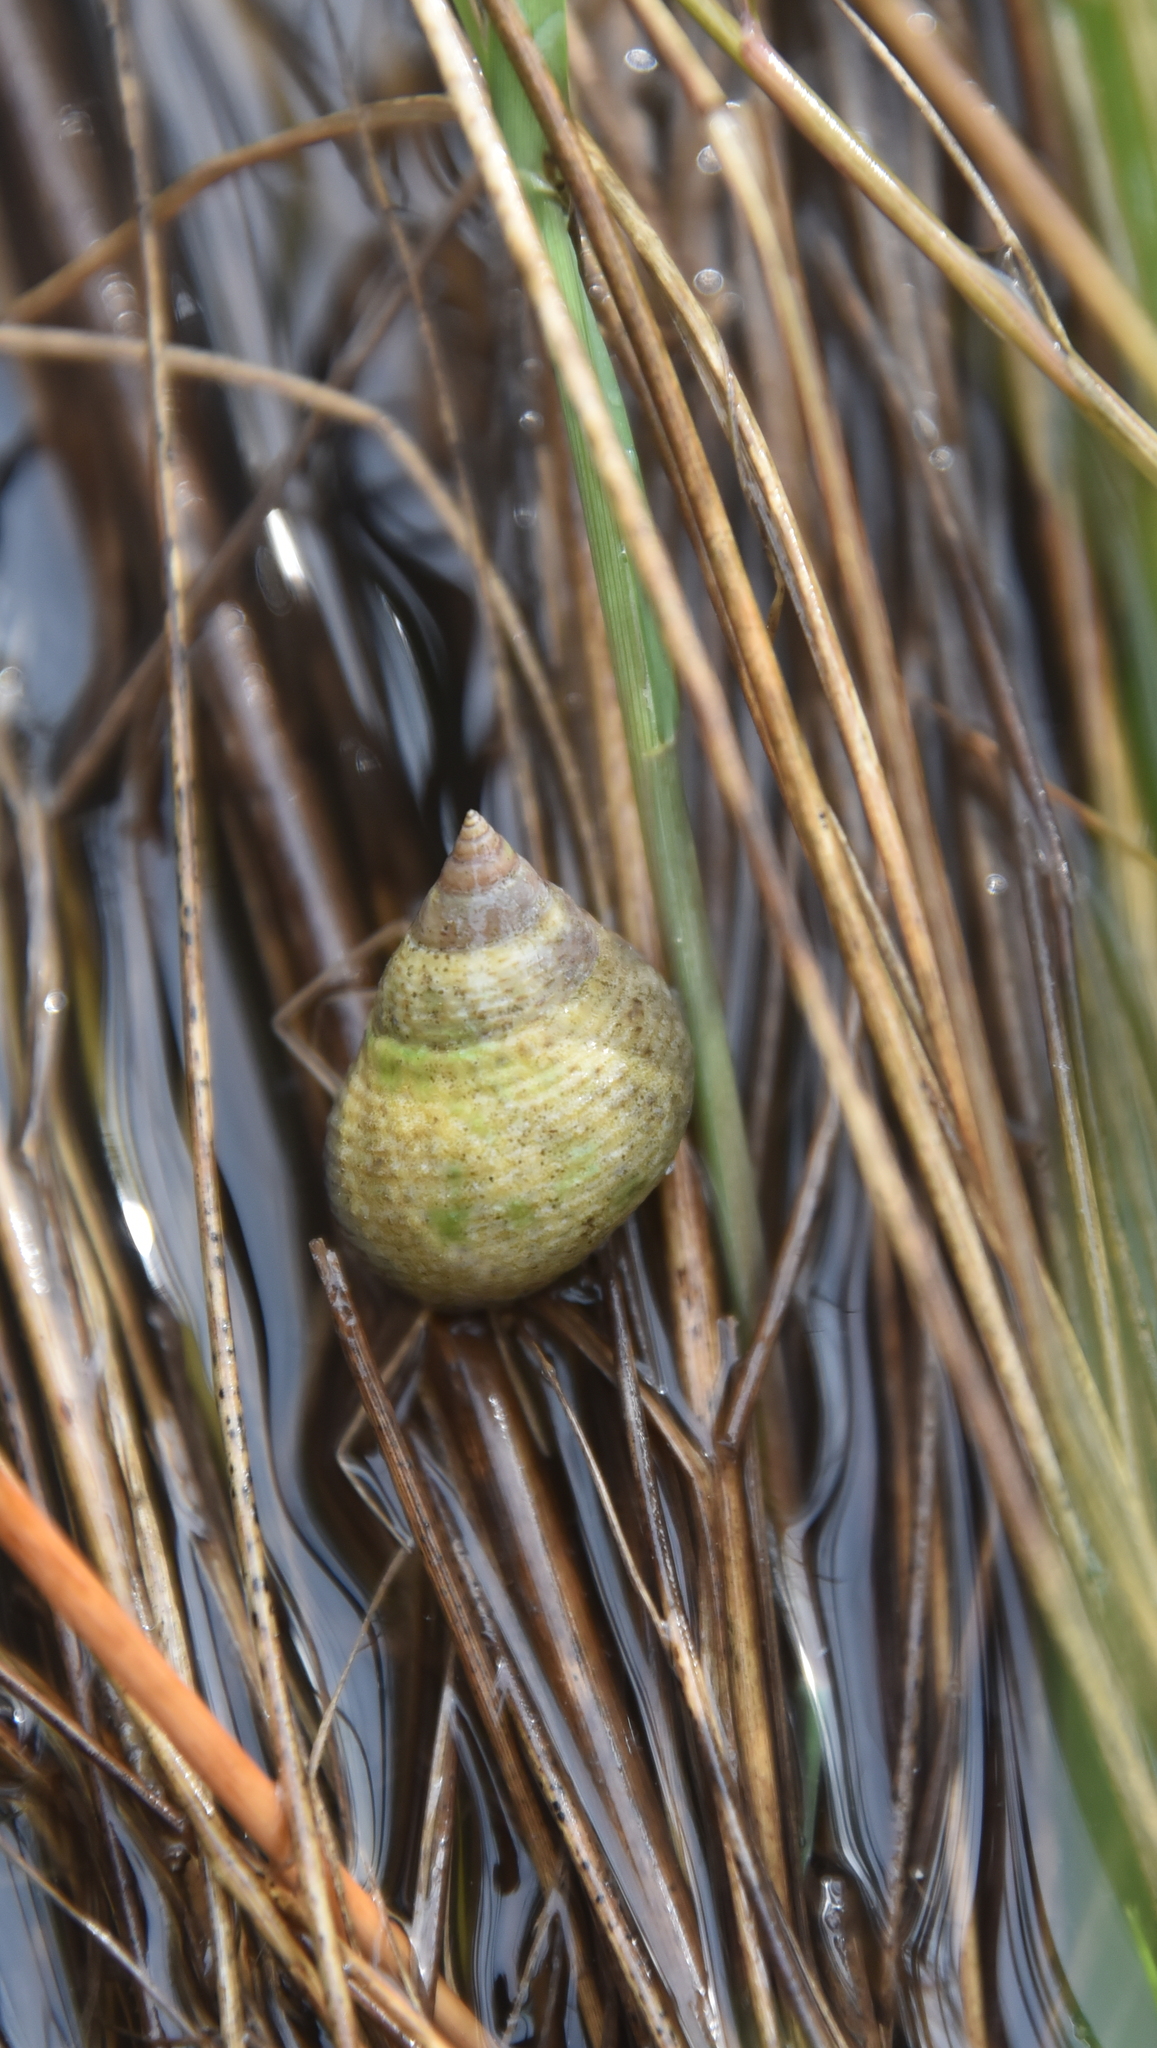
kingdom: Animalia
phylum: Mollusca
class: Gastropoda
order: Littorinimorpha
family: Littorinidae
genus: Littoraria
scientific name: Littoraria irrorata
